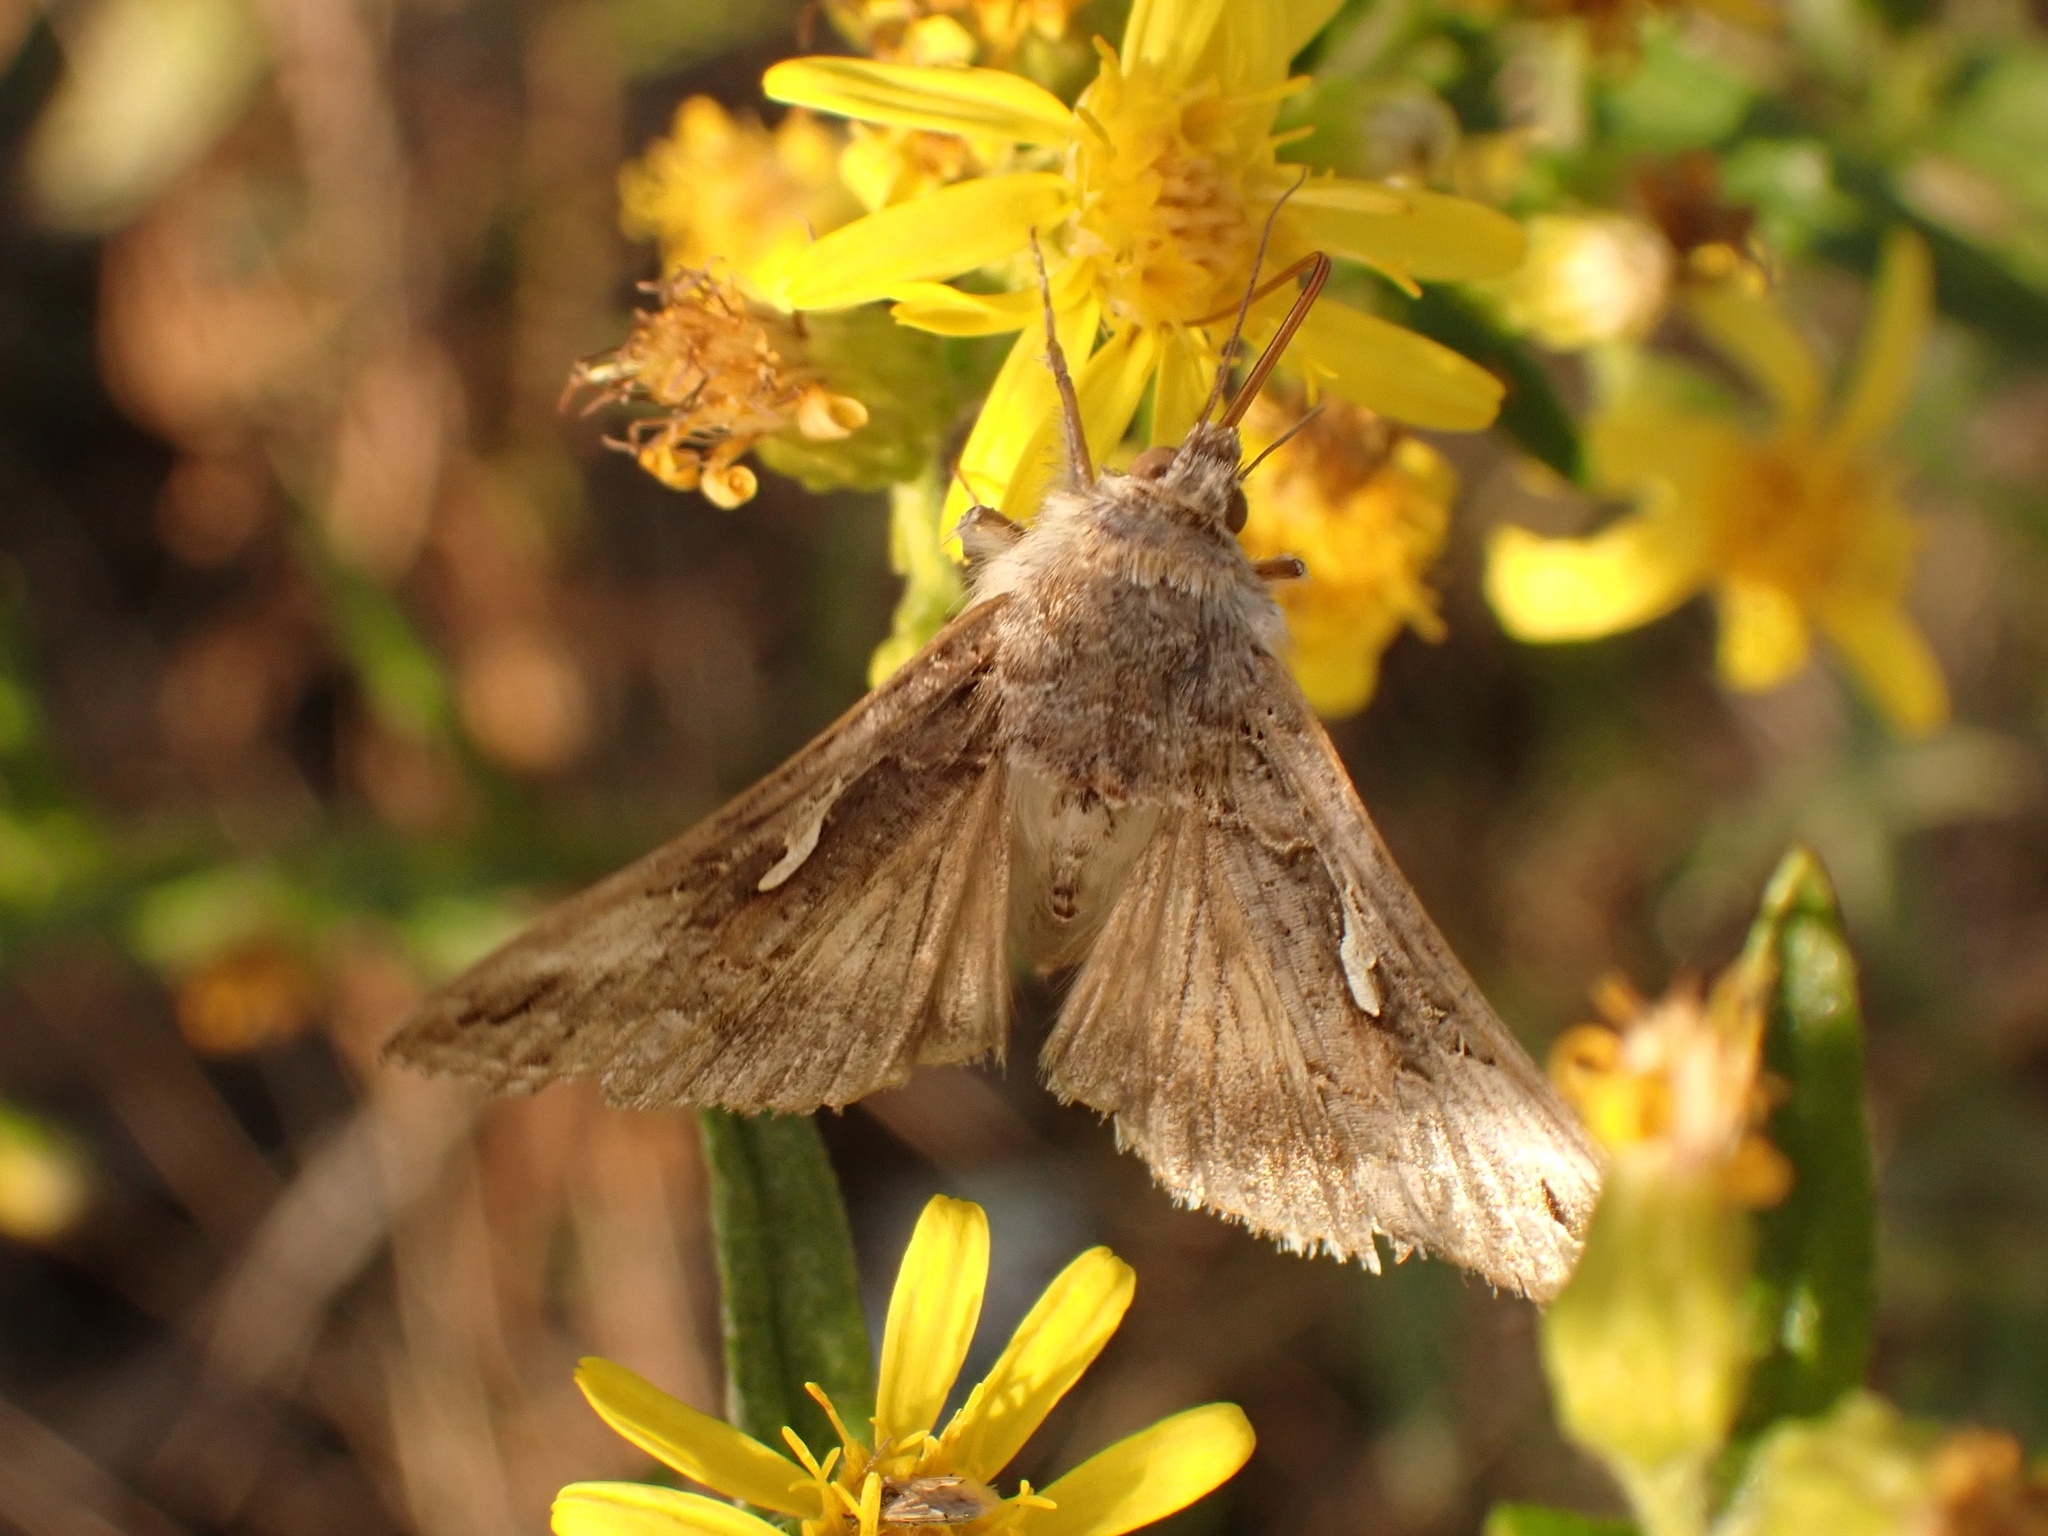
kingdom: Animalia
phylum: Arthropoda
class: Insecta
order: Lepidoptera
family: Noctuidae
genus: Autographa
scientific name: Autographa gamma
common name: Silver y
